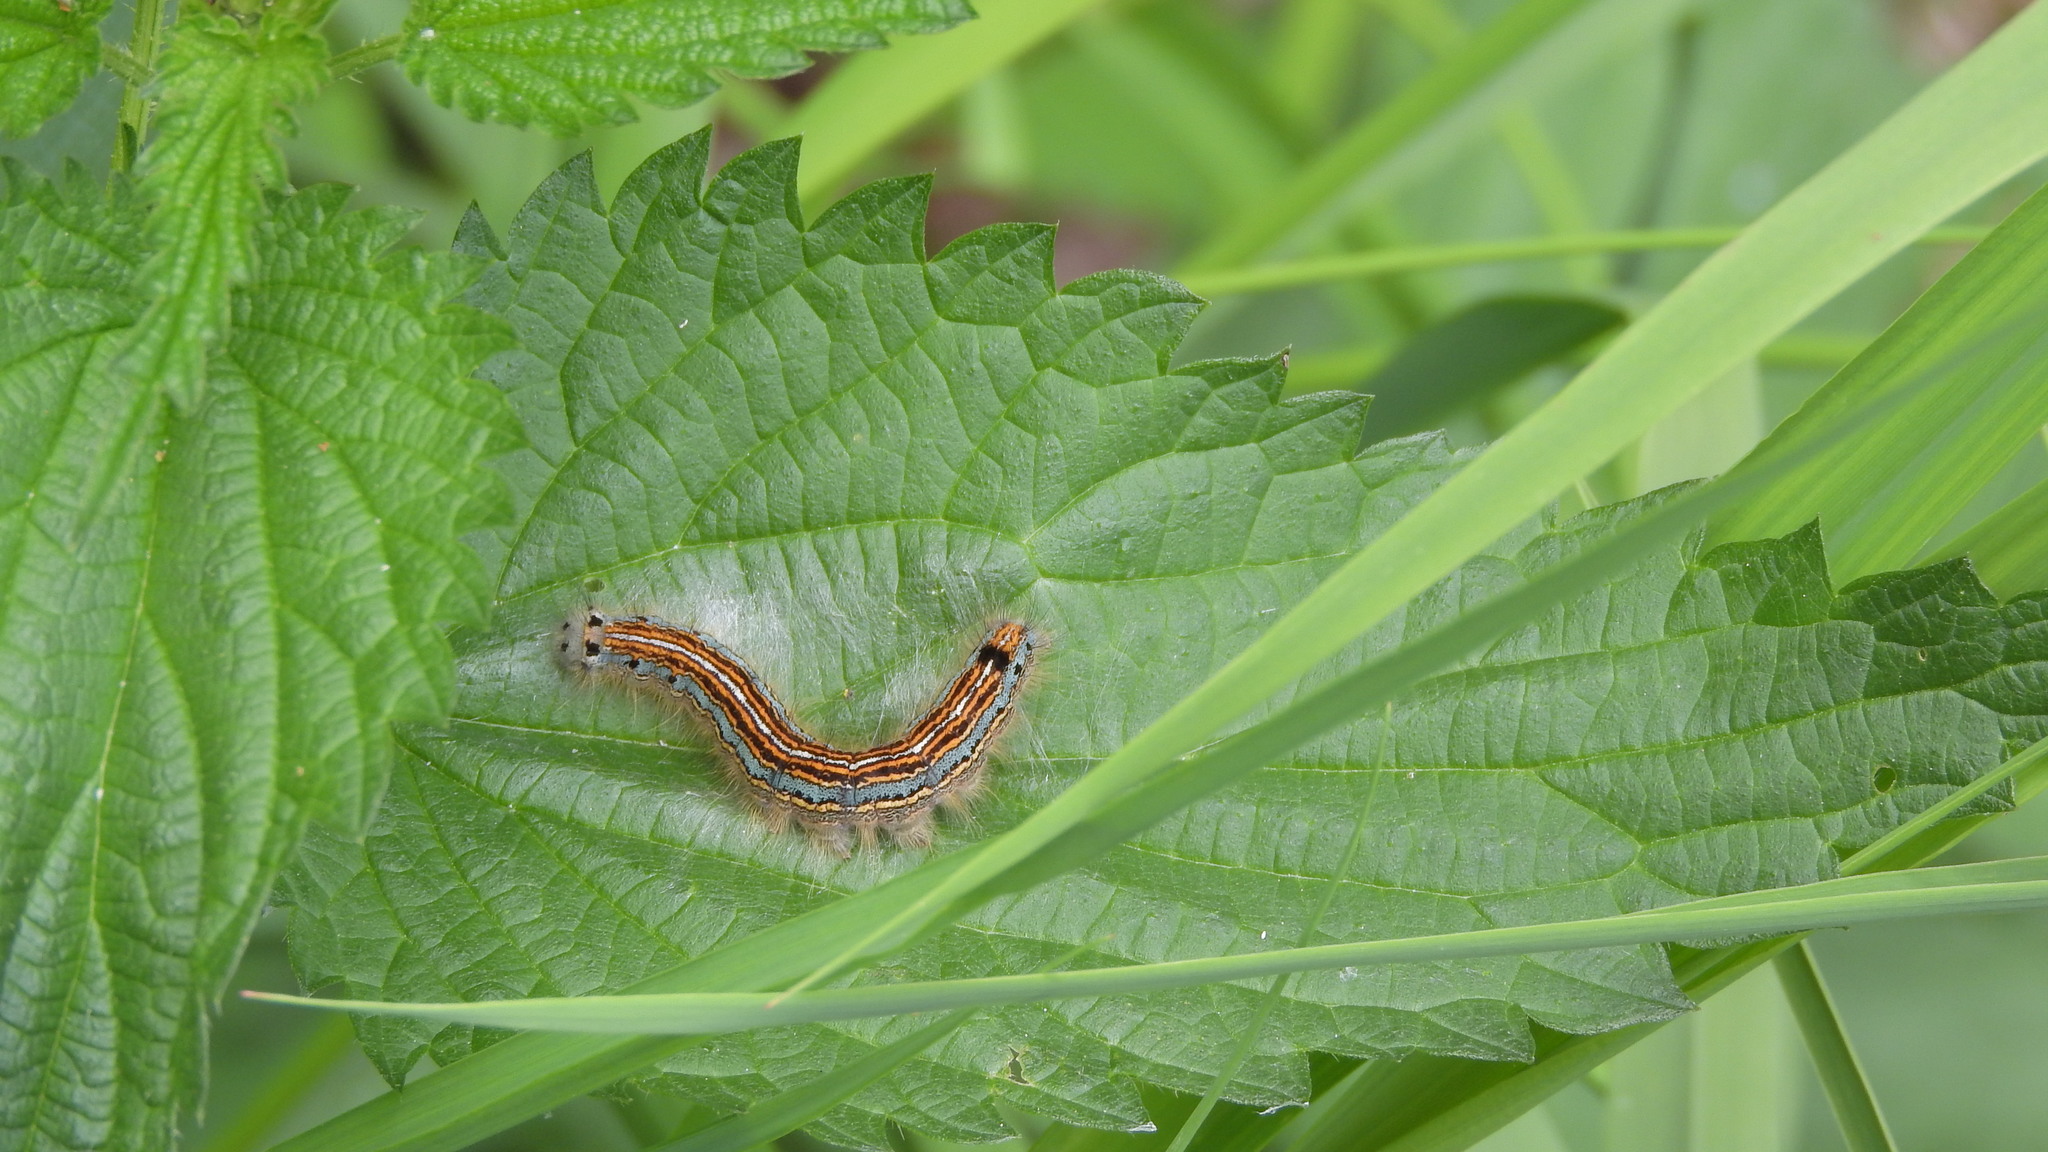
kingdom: Animalia
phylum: Arthropoda
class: Insecta
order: Lepidoptera
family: Lasiocampidae
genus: Malacosoma
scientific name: Malacosoma neustria
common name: The lackey
